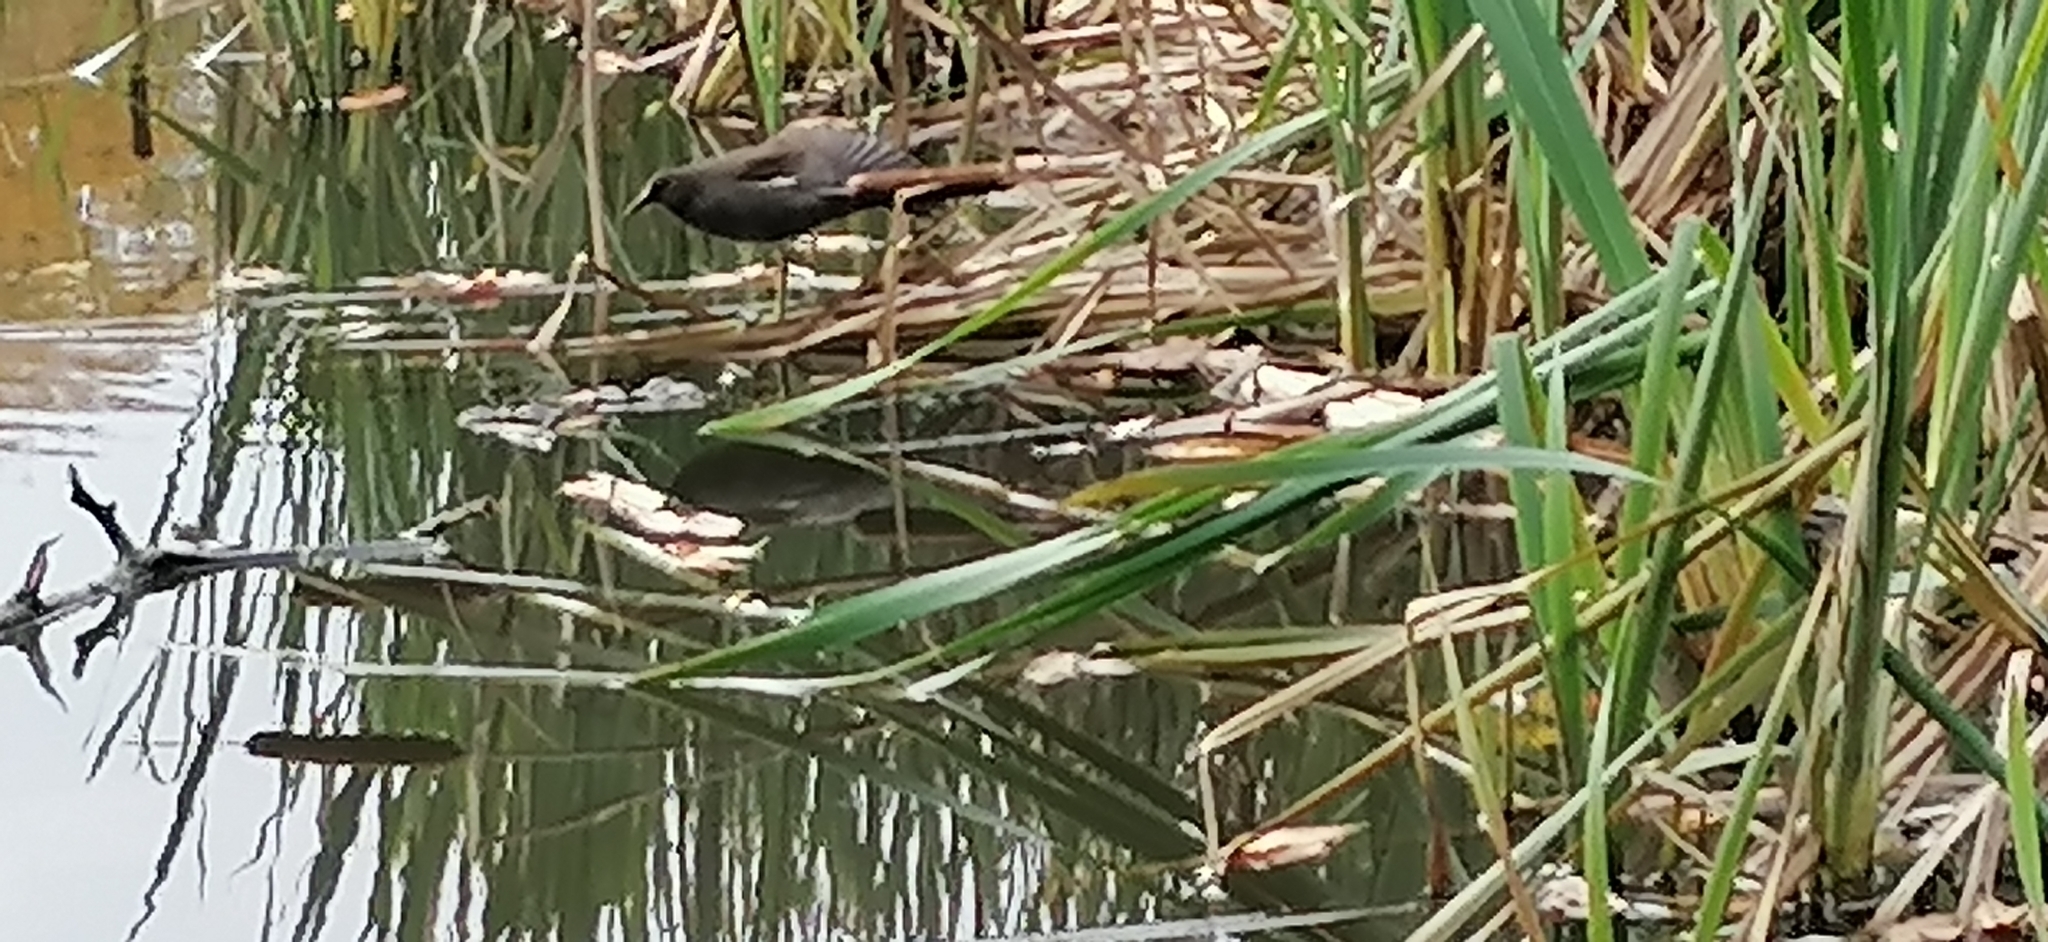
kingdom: Animalia
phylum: Chordata
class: Aves
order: Gruiformes
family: Rallidae
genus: Gallinula
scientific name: Gallinula chloropus
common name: Common moorhen
